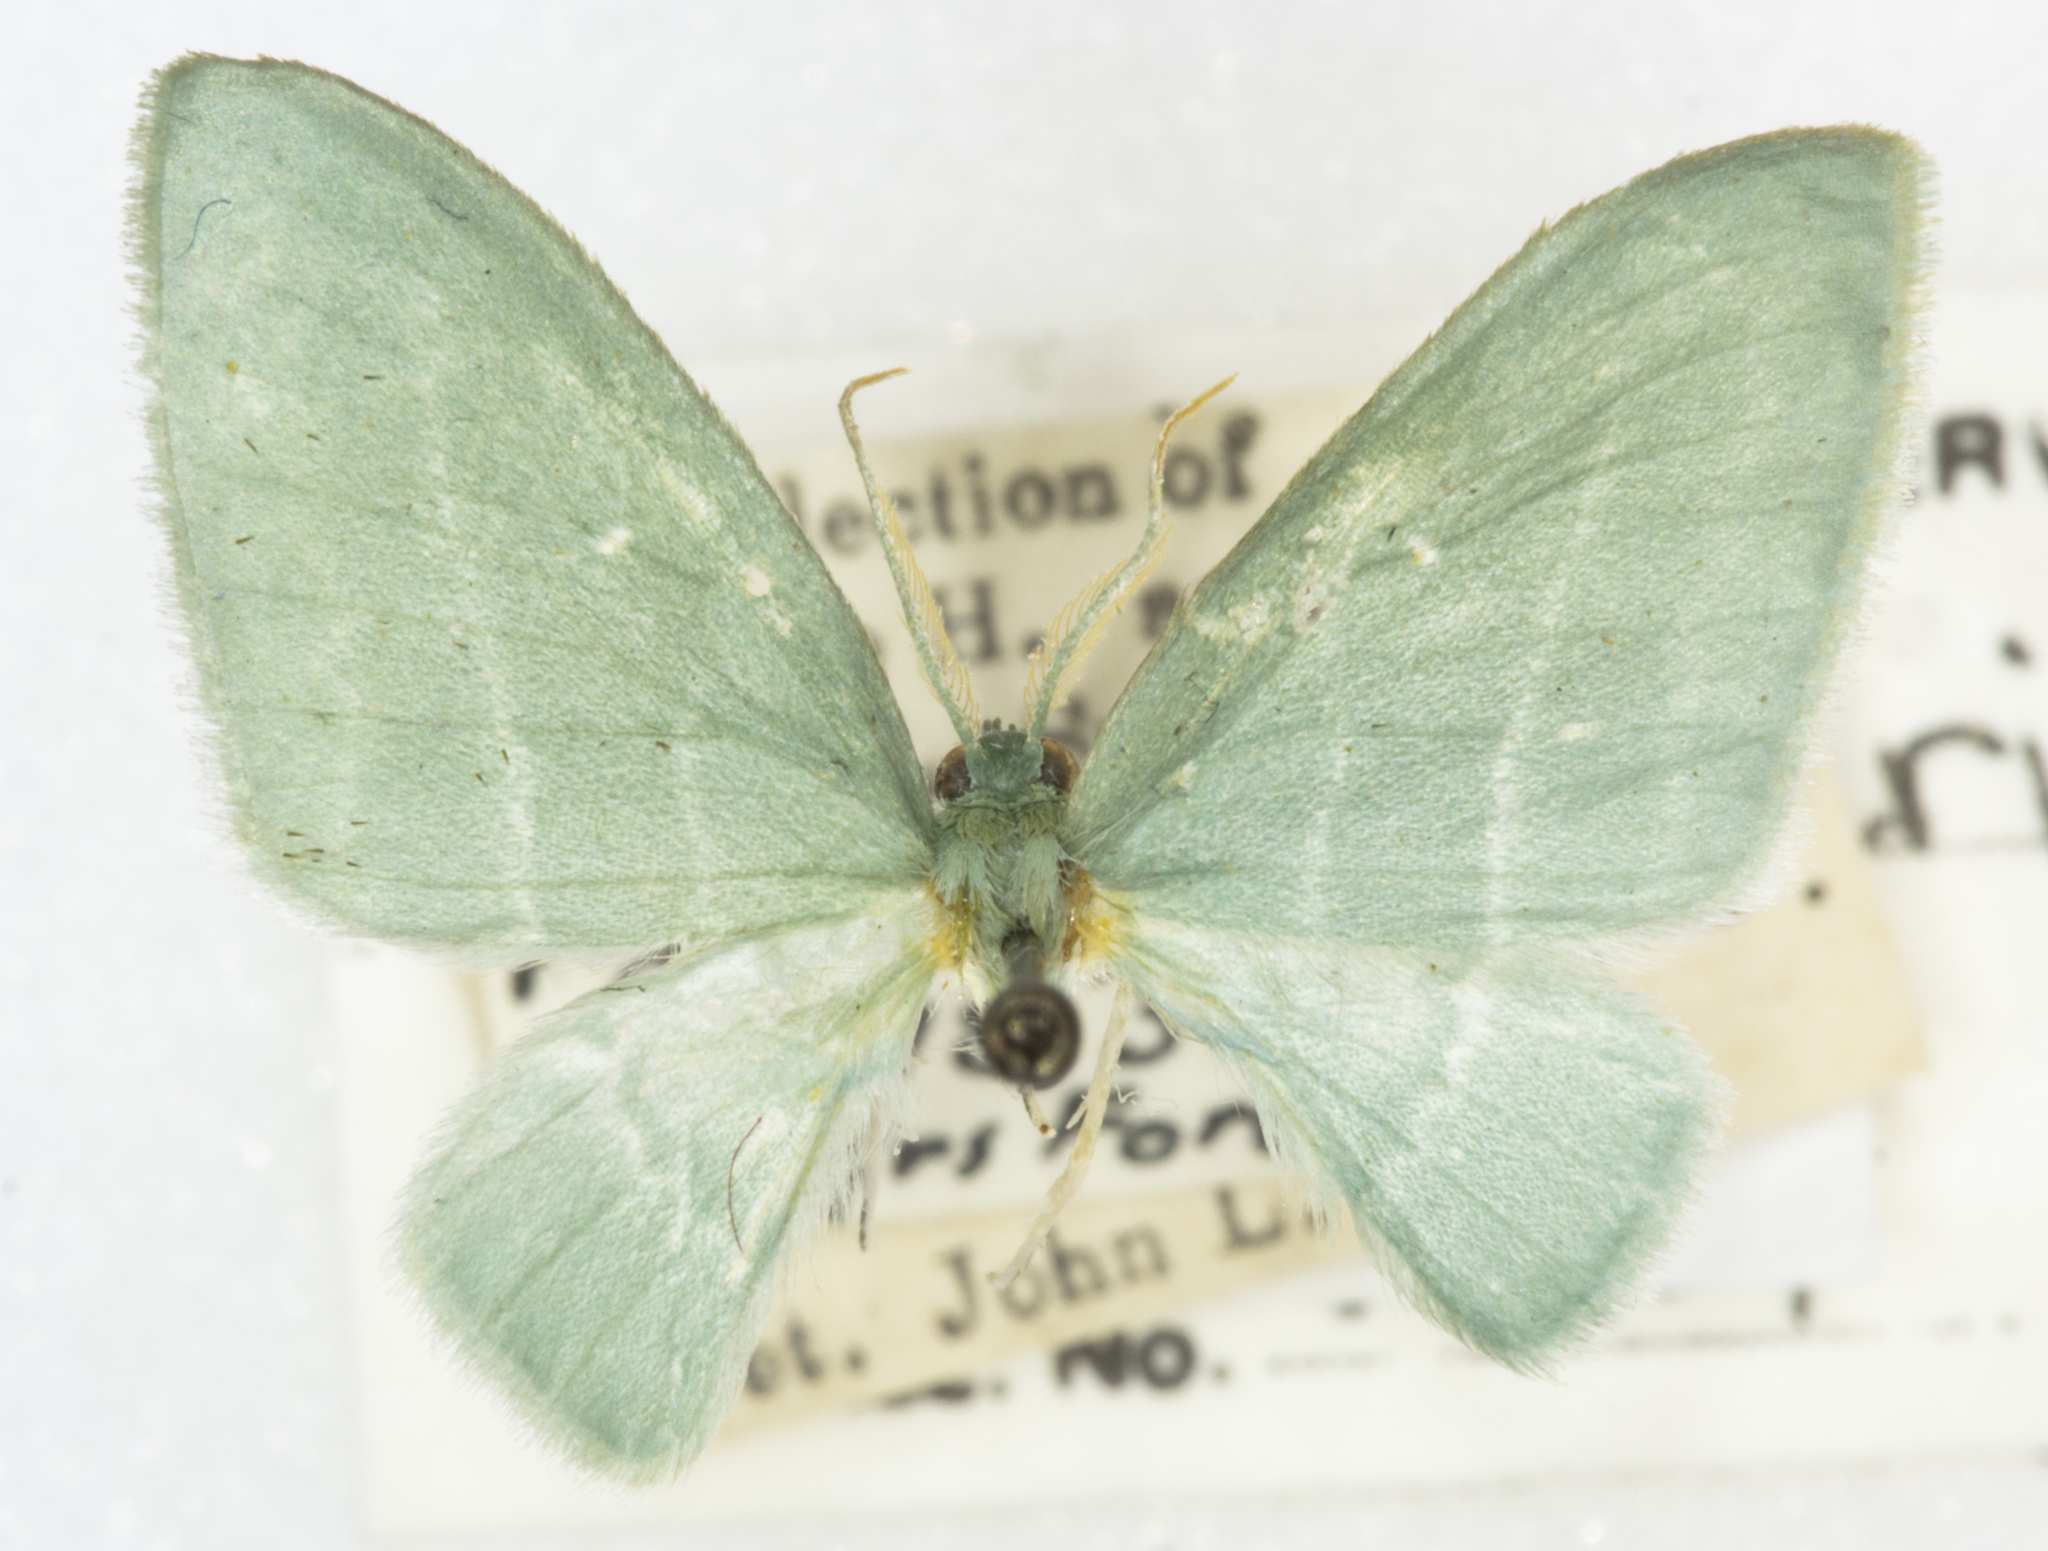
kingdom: Animalia
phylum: Arthropoda
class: Insecta
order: Lepidoptera
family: Geometridae
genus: Dyspteris
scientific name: Dyspteris abortivaria
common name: Bad-wing
